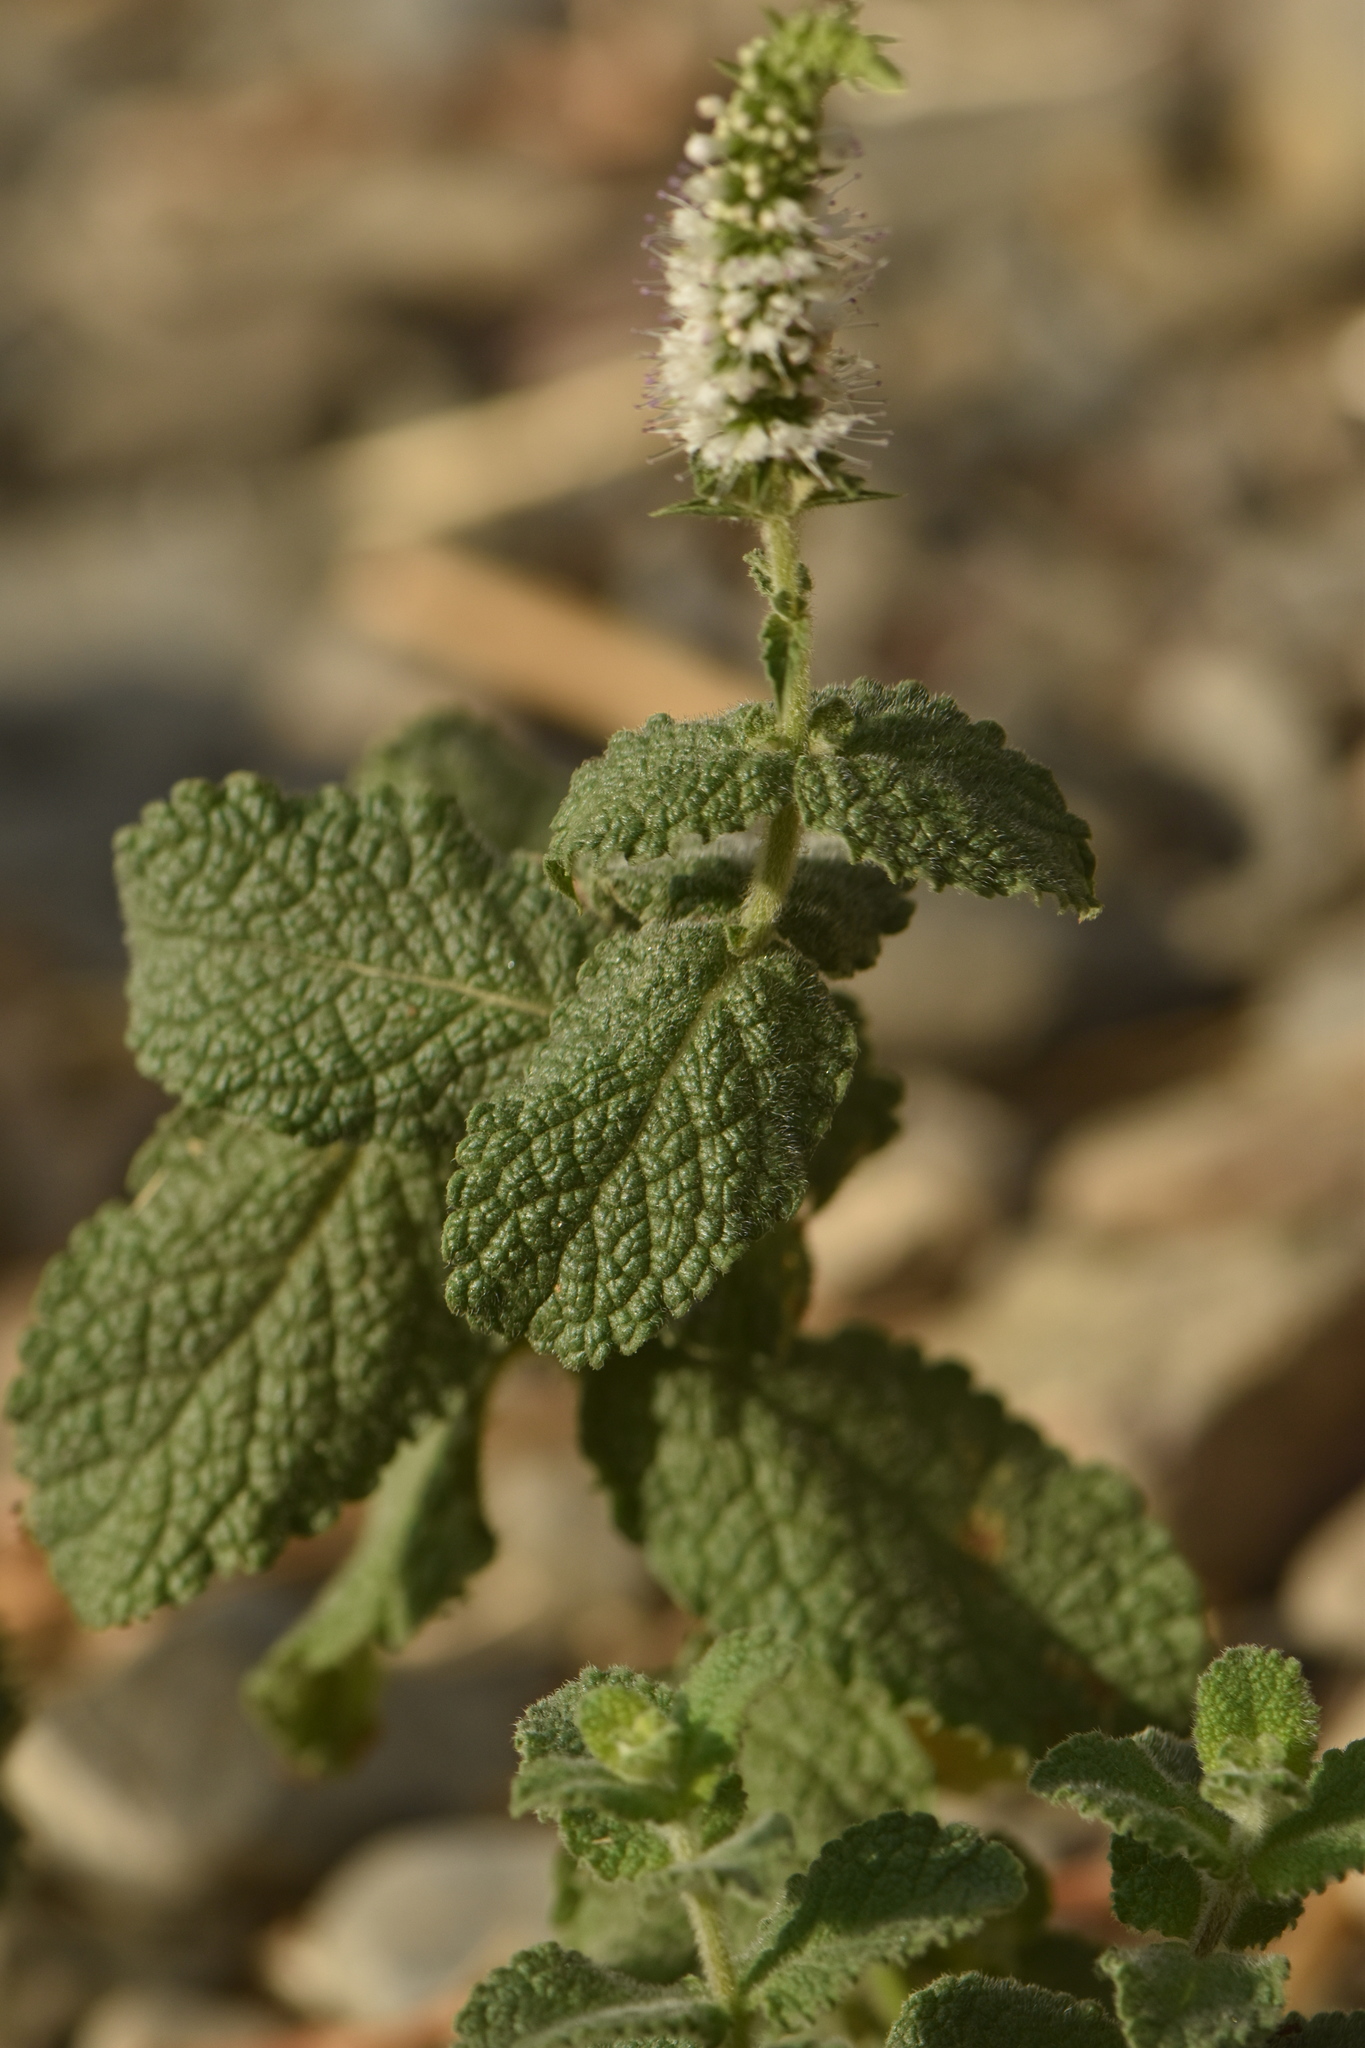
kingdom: Plantae
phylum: Tracheophyta
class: Magnoliopsida
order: Lamiales
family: Lamiaceae
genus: Mentha
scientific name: Mentha suaveolens
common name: Apple mint
